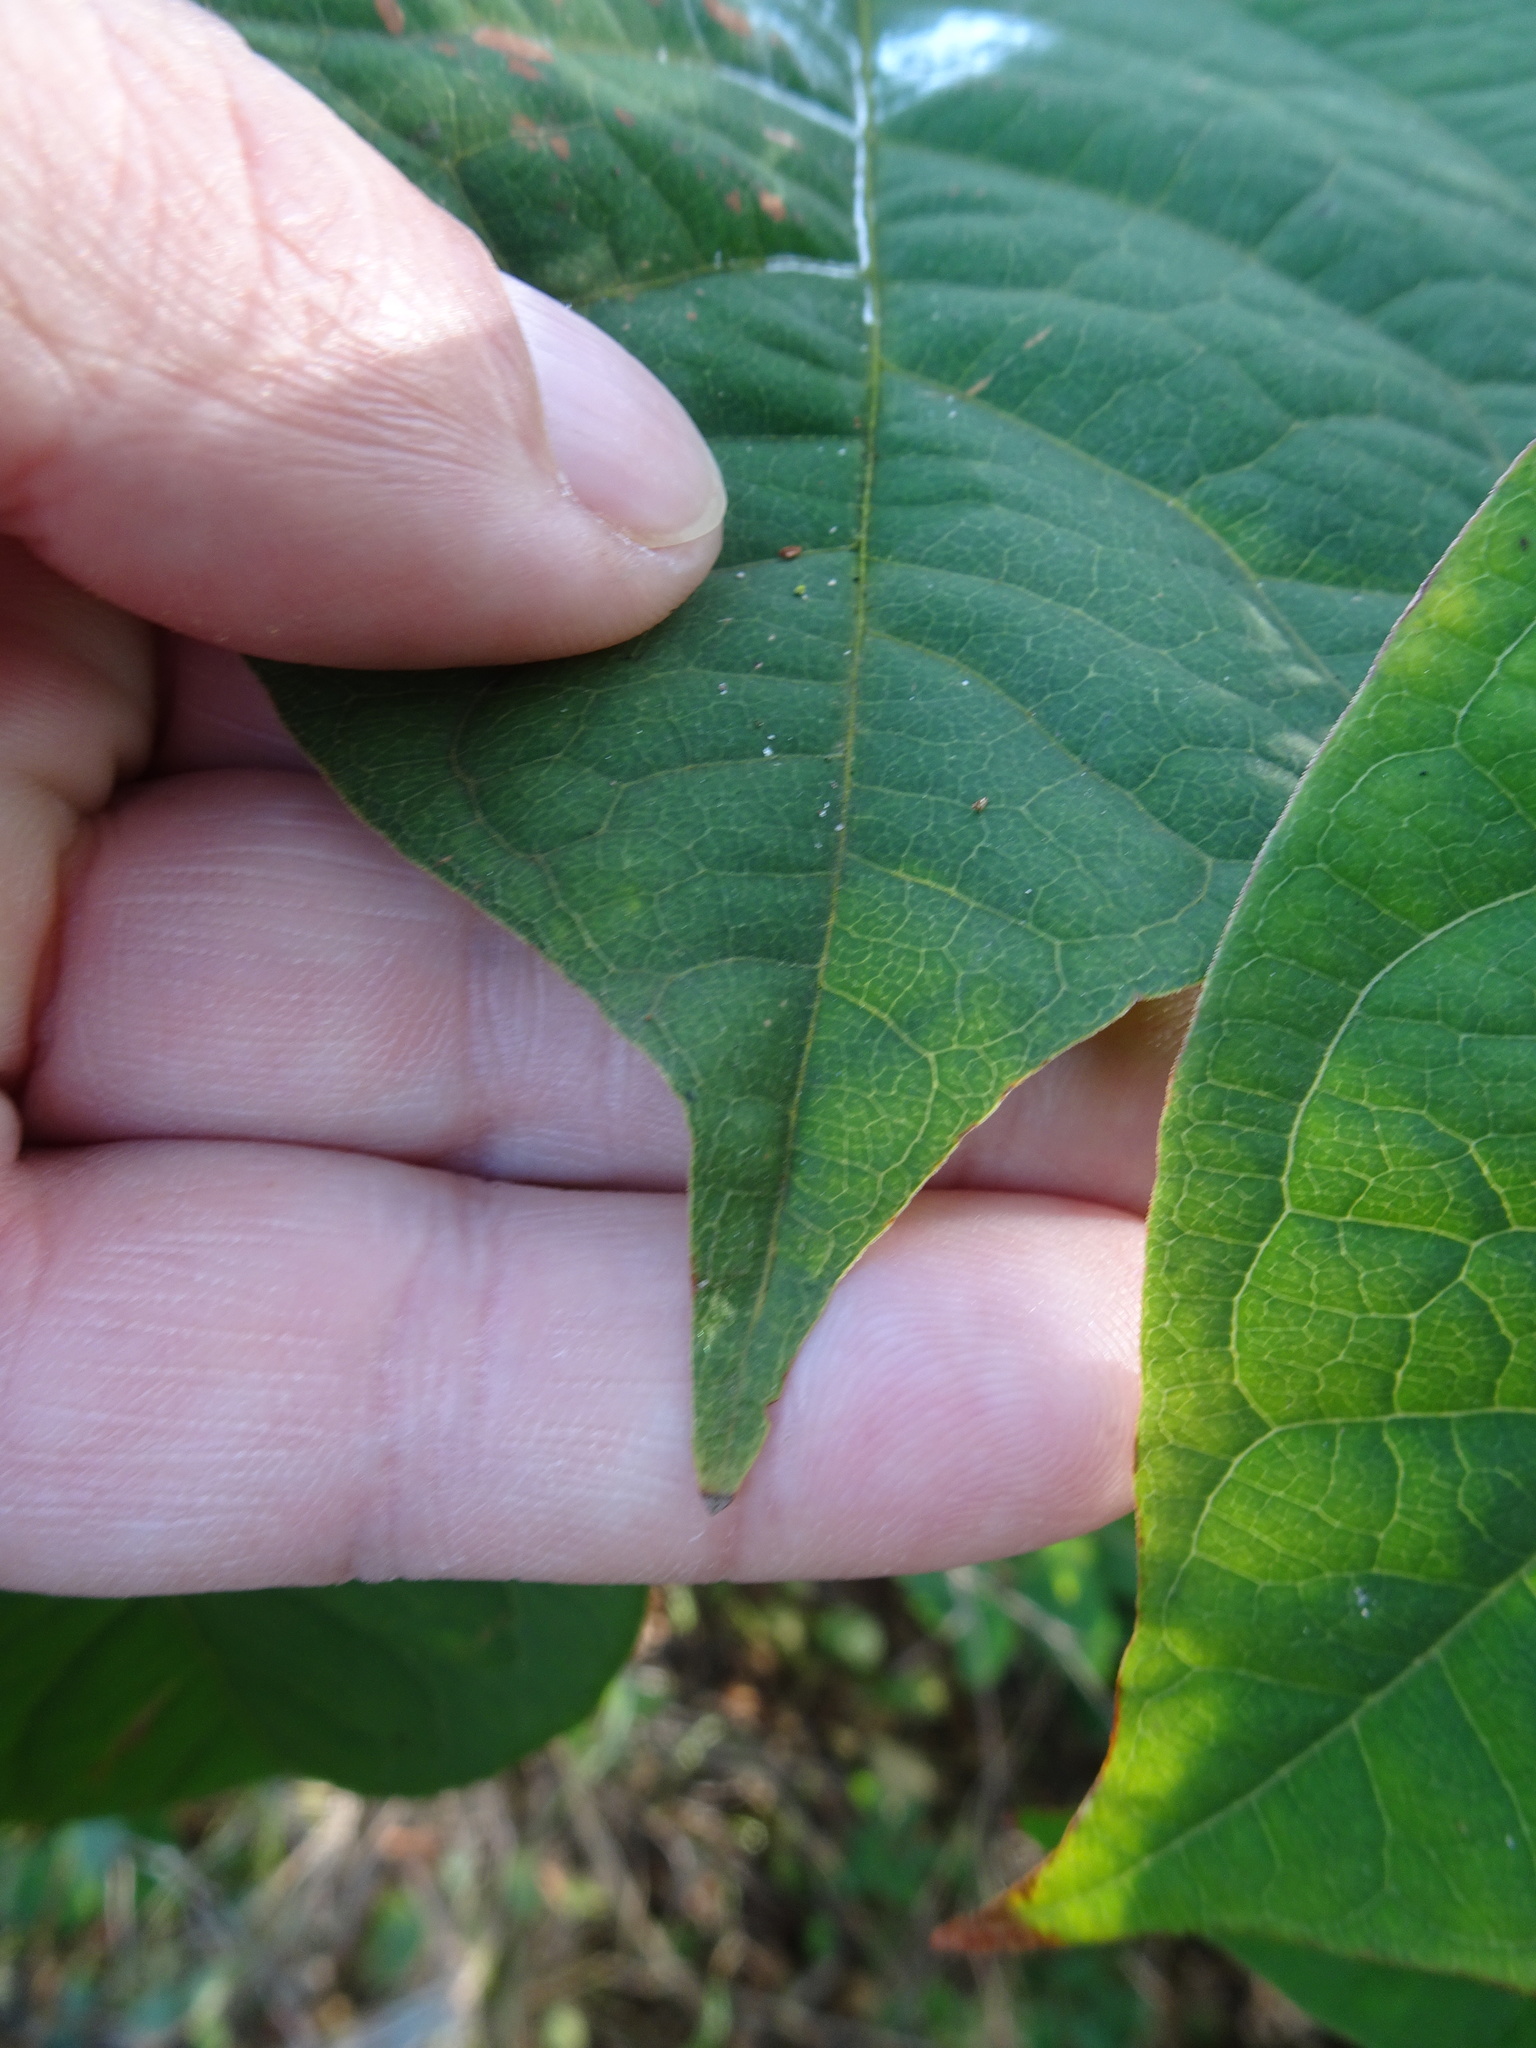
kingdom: Plantae
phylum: Tracheophyta
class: Magnoliopsida
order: Caryophyllales
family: Polygonaceae
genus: Reynoutria
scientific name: Reynoutria japonica
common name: Japanese knotweed
